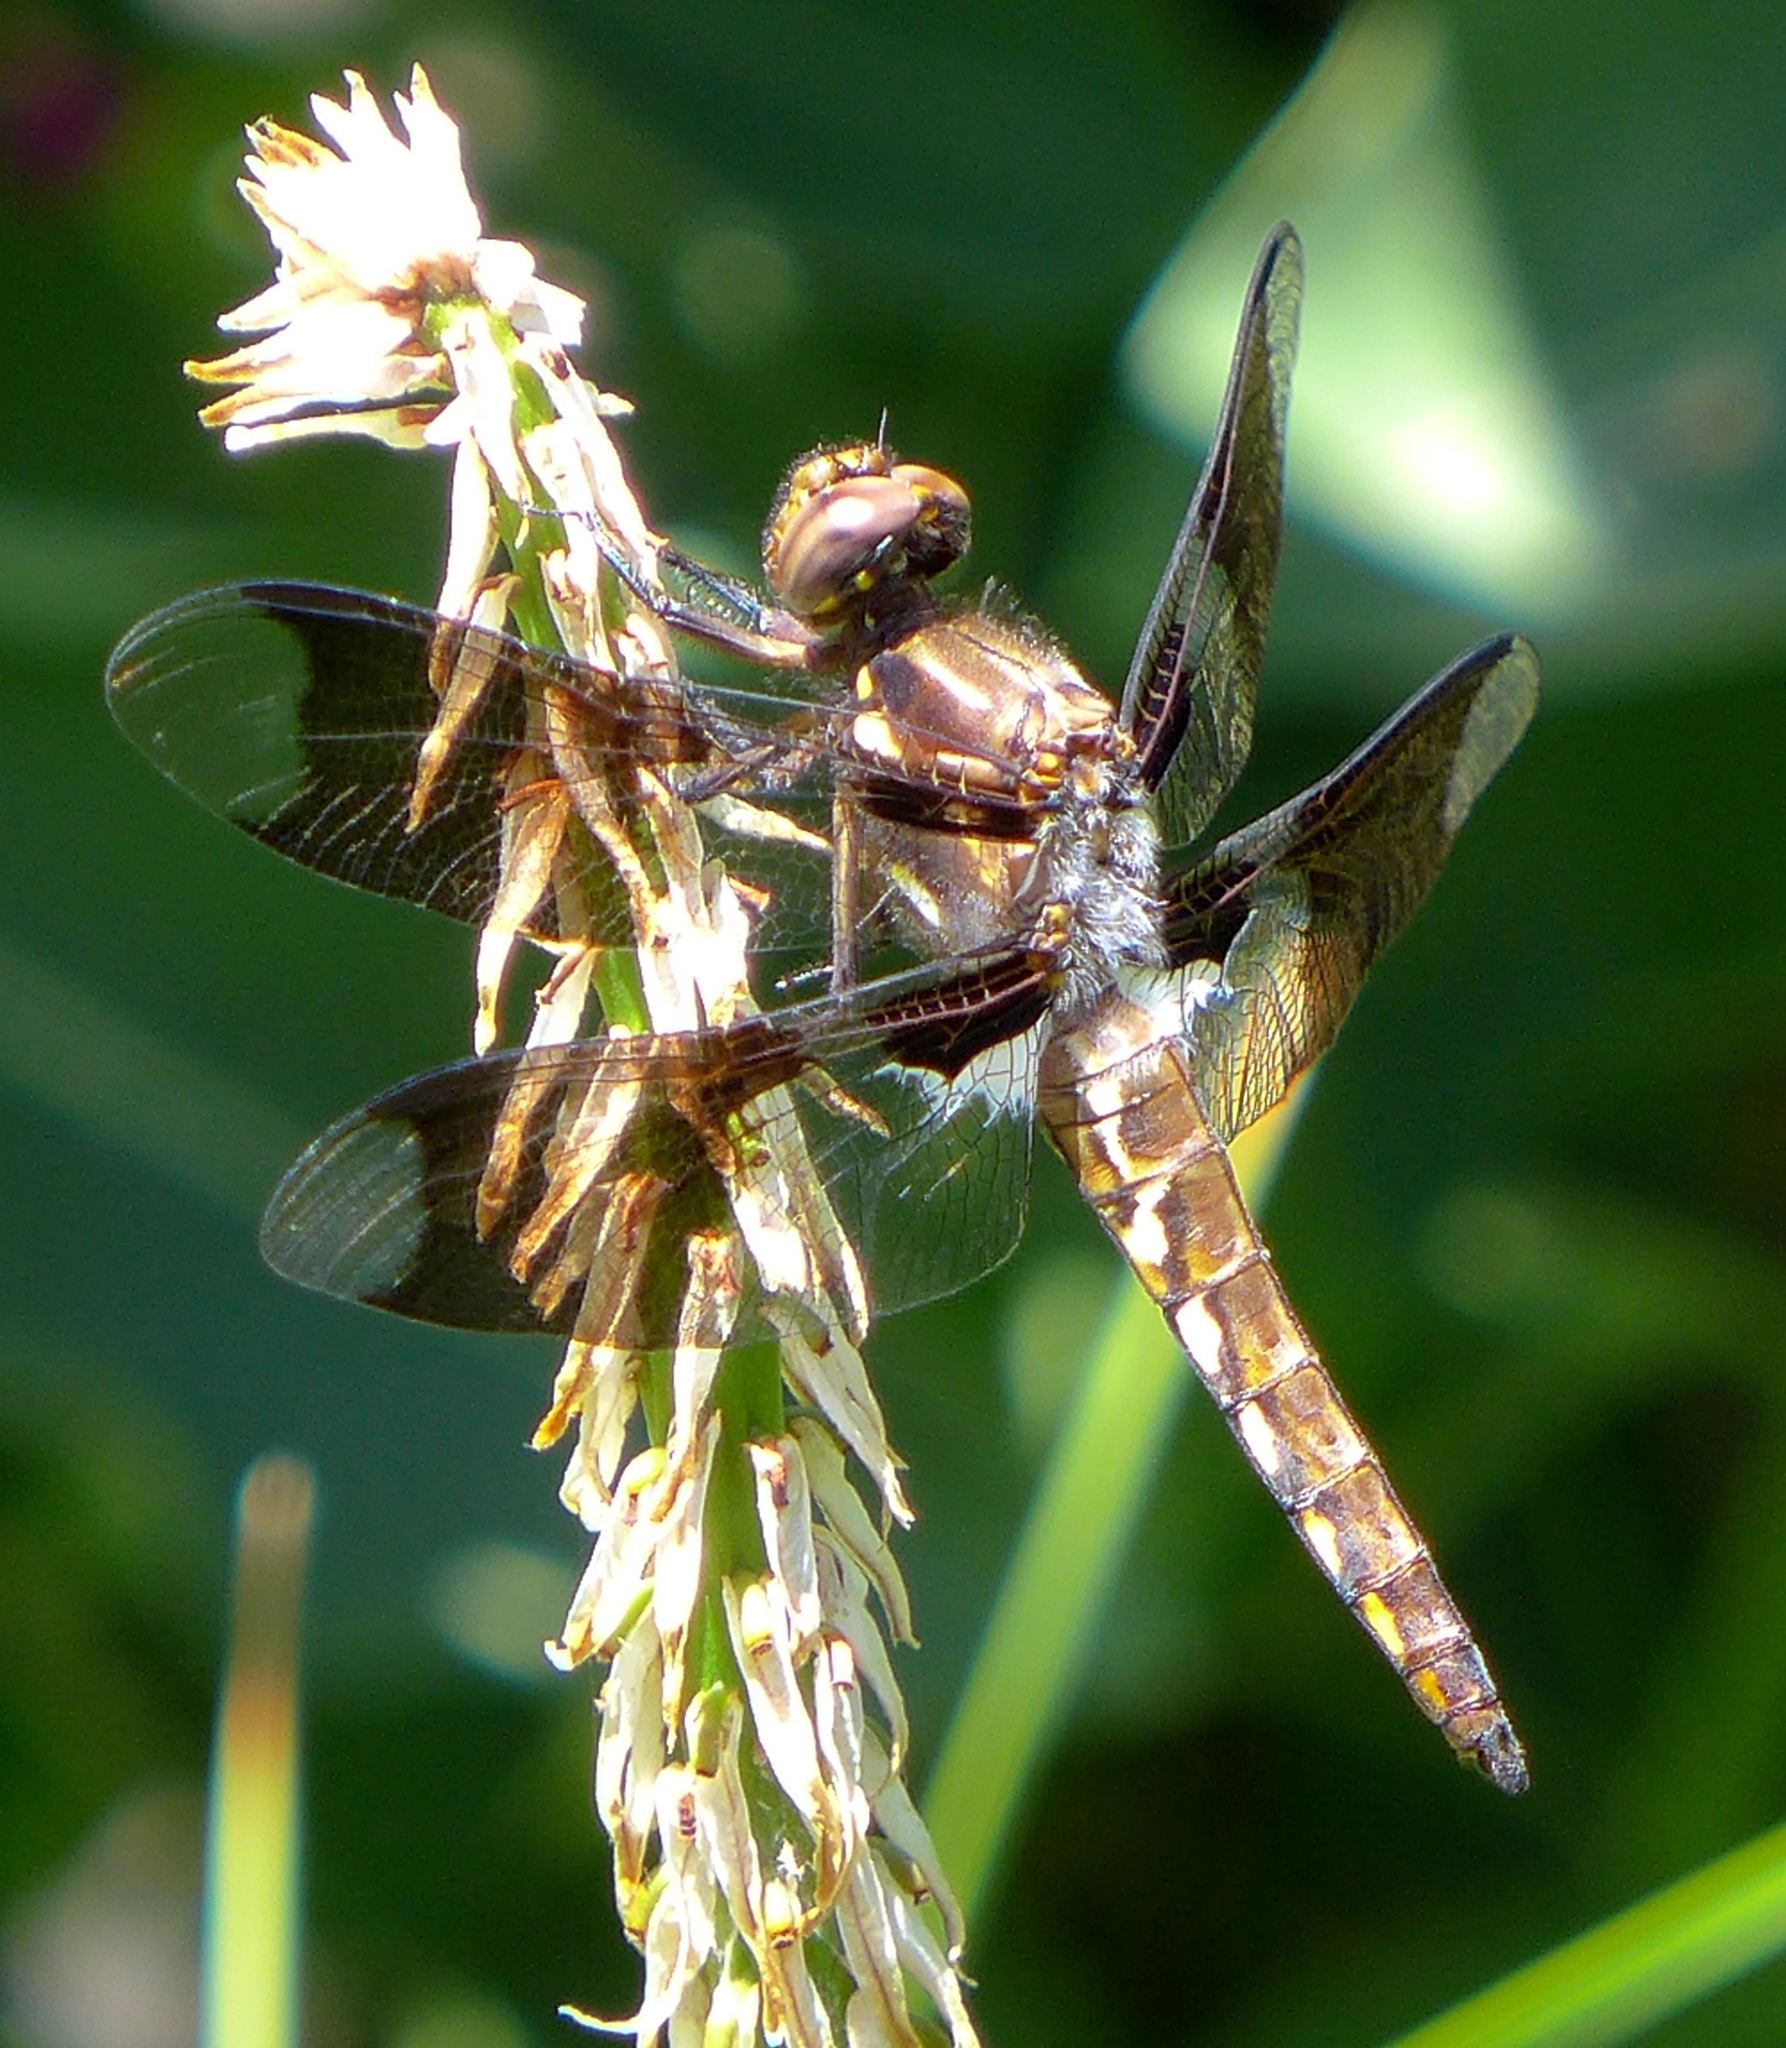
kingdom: Animalia
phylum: Arthropoda
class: Insecta
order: Odonata
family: Libellulidae
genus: Plathemis
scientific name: Plathemis lydia
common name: Common whitetail
